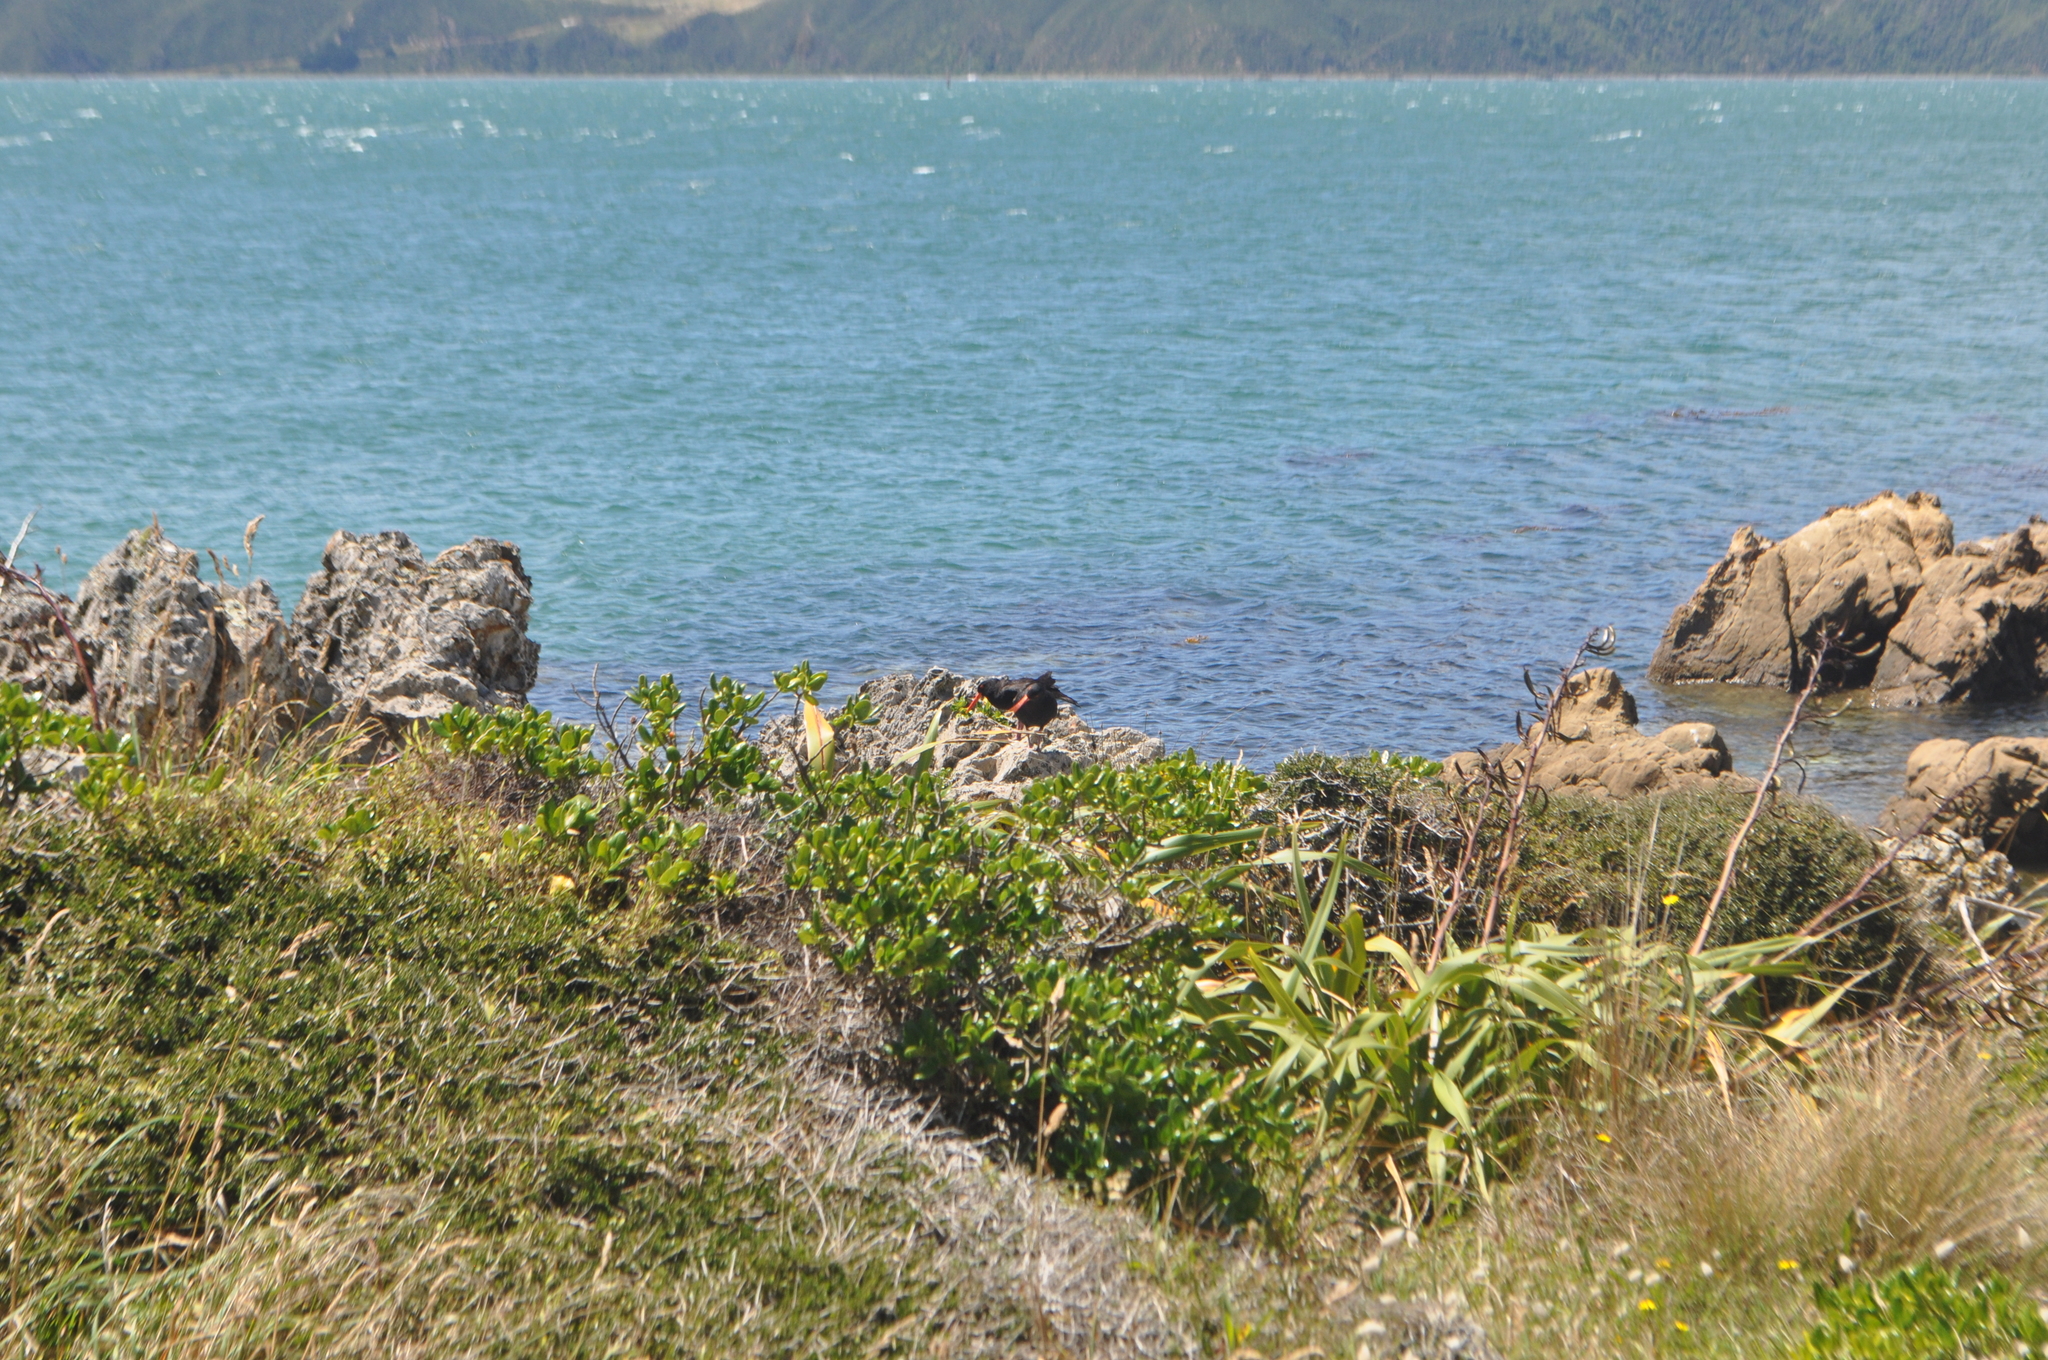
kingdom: Animalia
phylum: Chordata
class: Aves
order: Charadriiformes
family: Haematopodidae
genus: Haematopus
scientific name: Haematopus unicolor
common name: Variable oystercatcher
